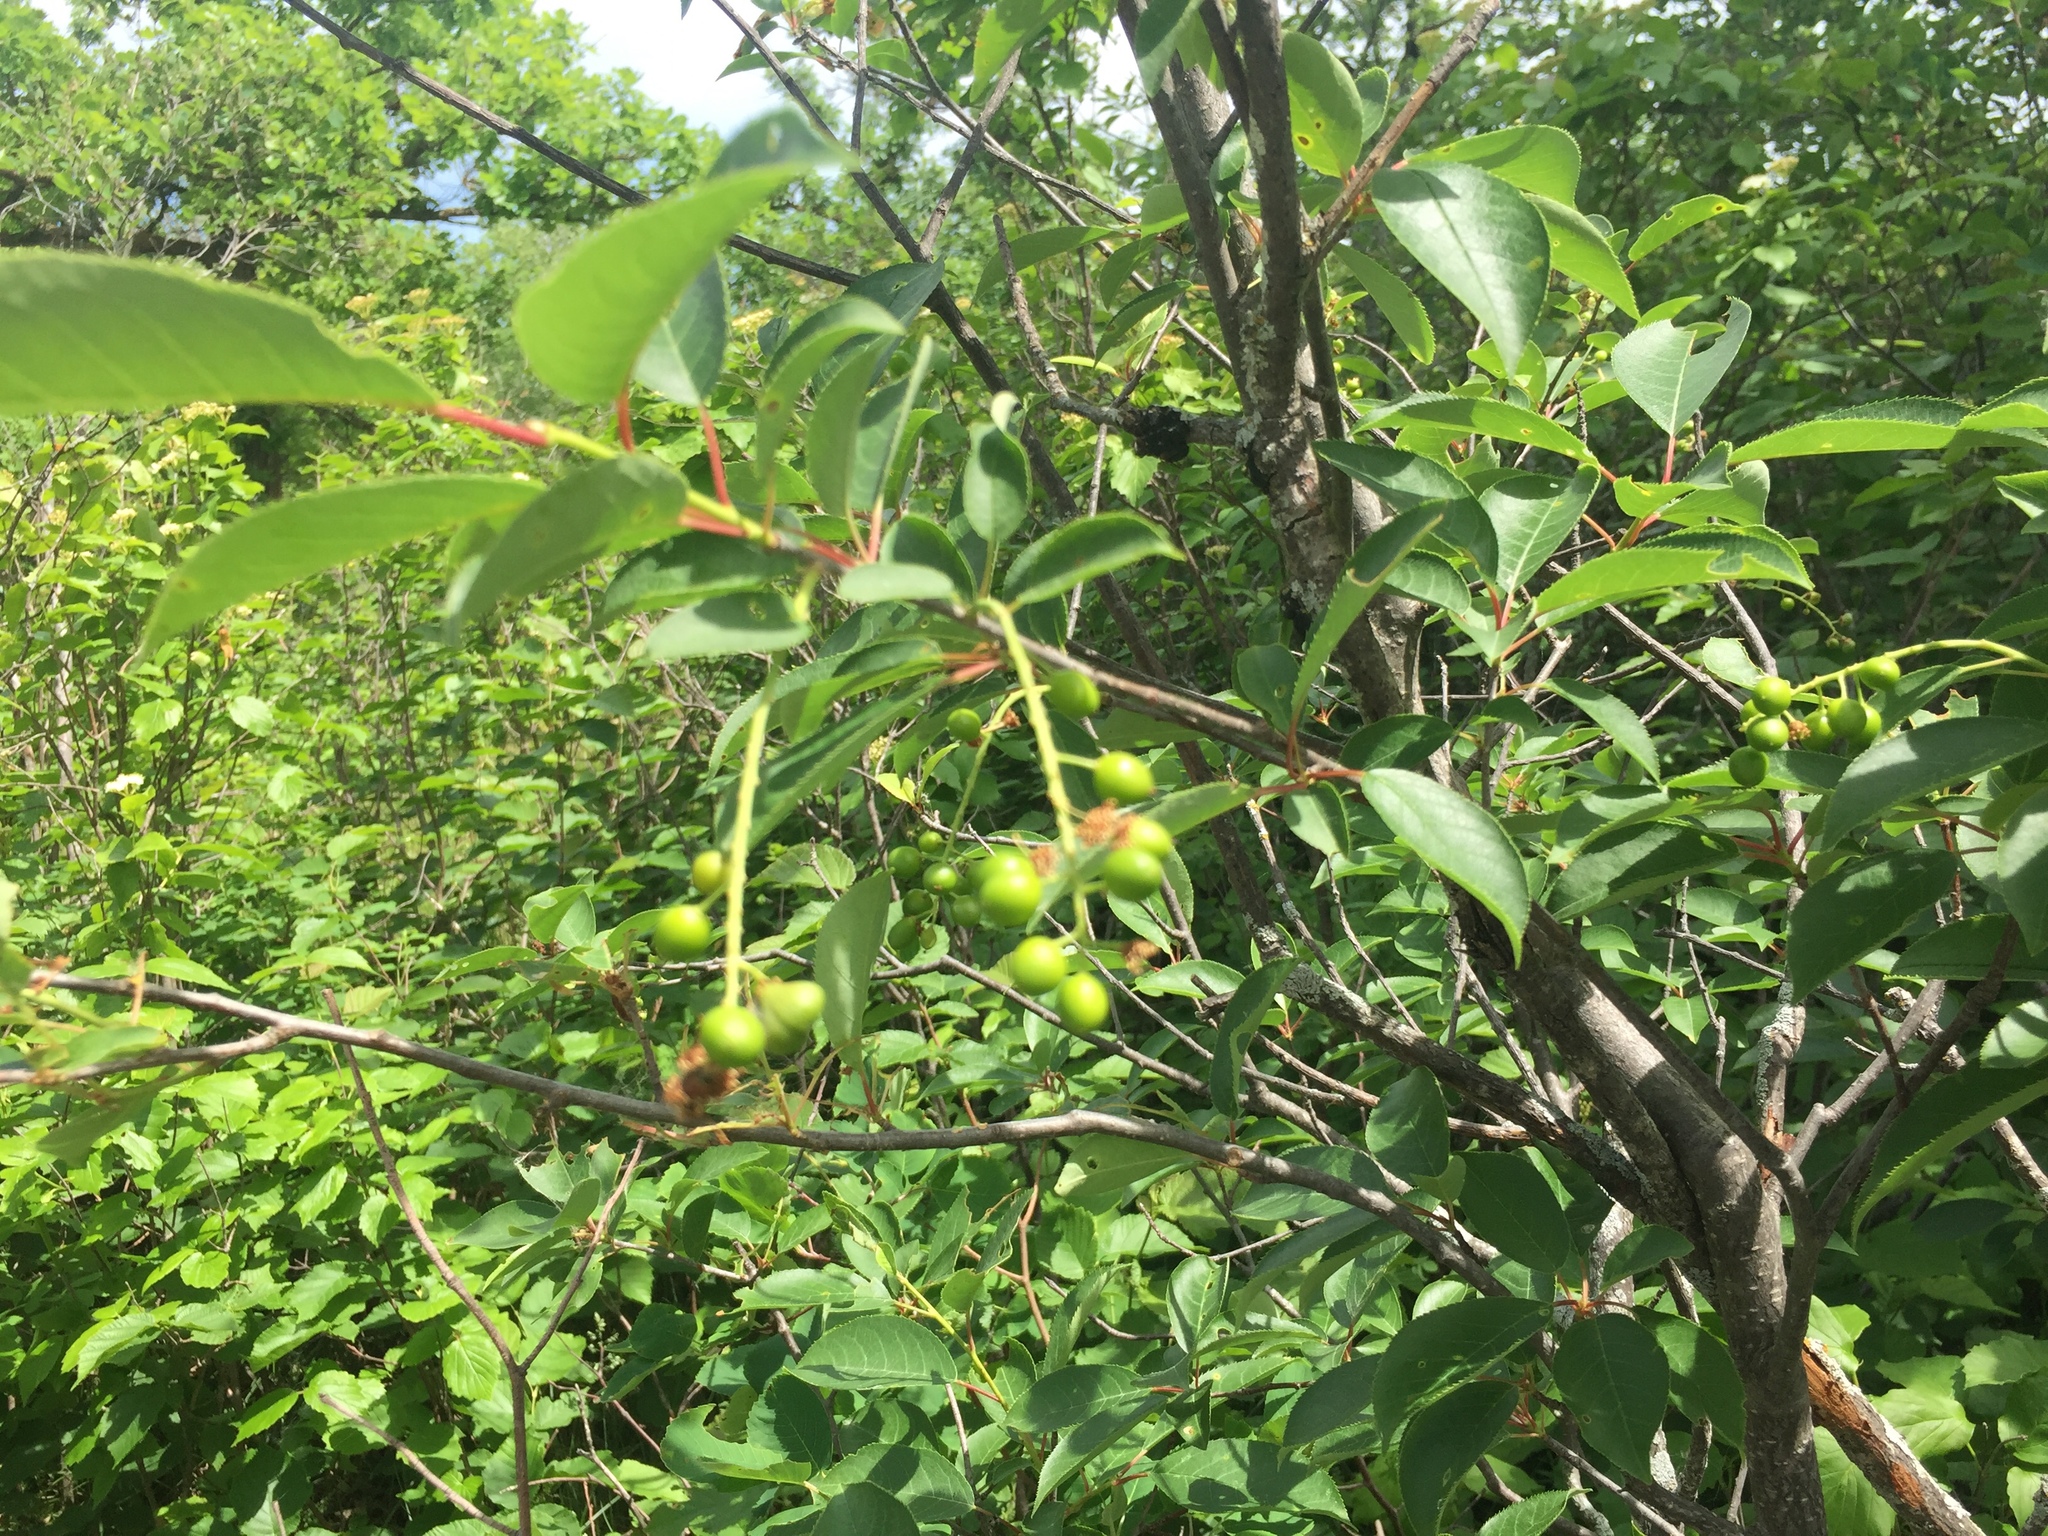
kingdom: Plantae
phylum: Tracheophyta
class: Magnoliopsida
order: Rosales
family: Rosaceae
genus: Prunus
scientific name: Prunus virginiana
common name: Chokecherry
